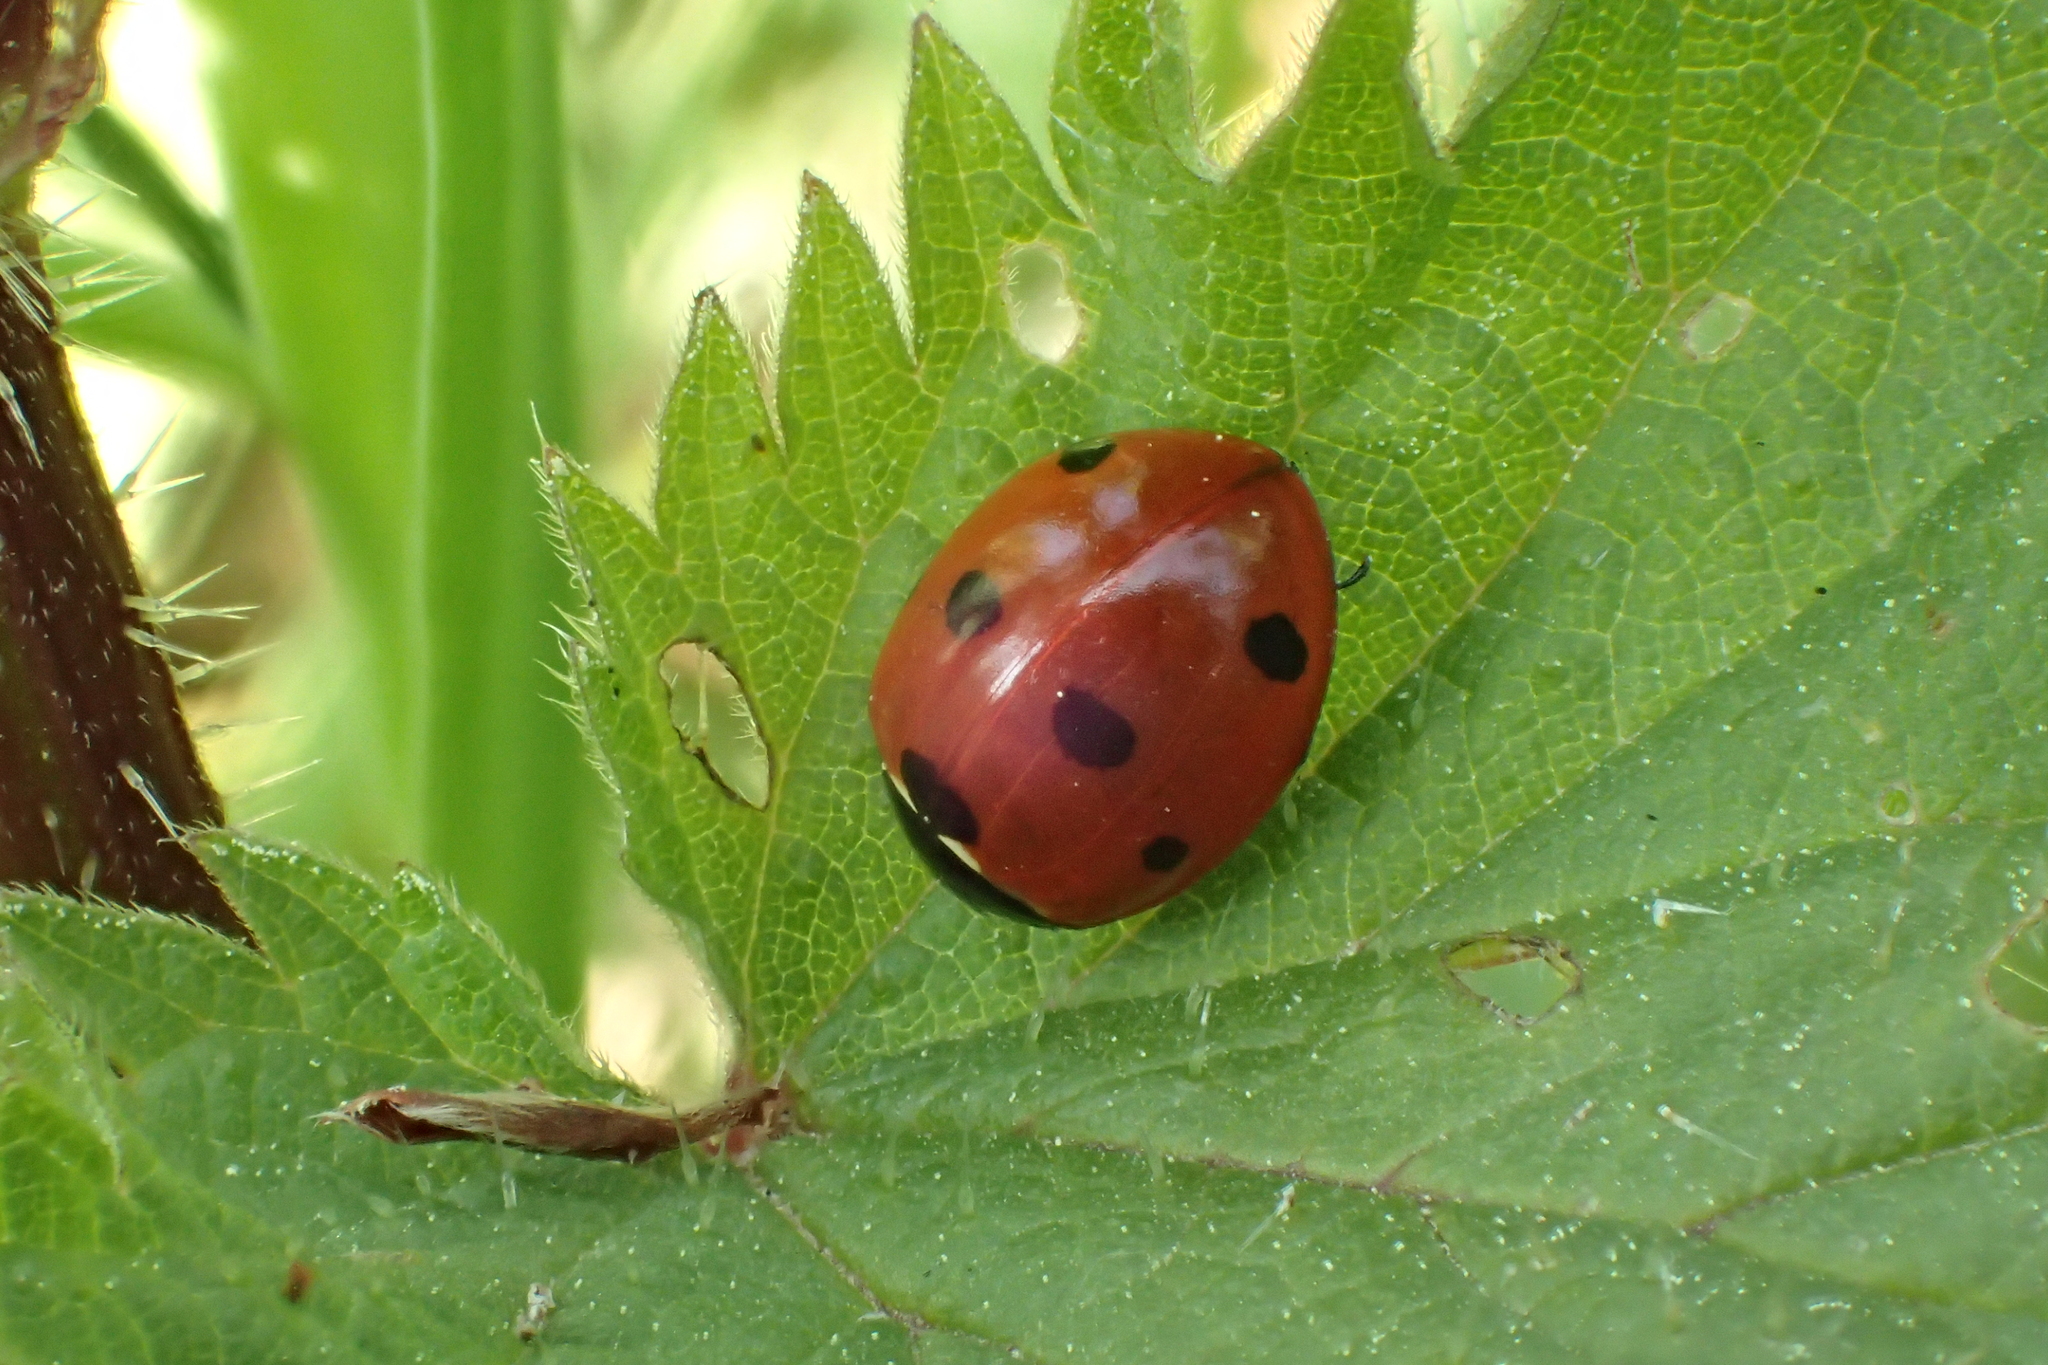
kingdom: Animalia
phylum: Arthropoda
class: Insecta
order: Coleoptera
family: Coccinellidae
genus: Coccinella
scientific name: Coccinella septempunctata
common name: Sevenspotted lady beetle
